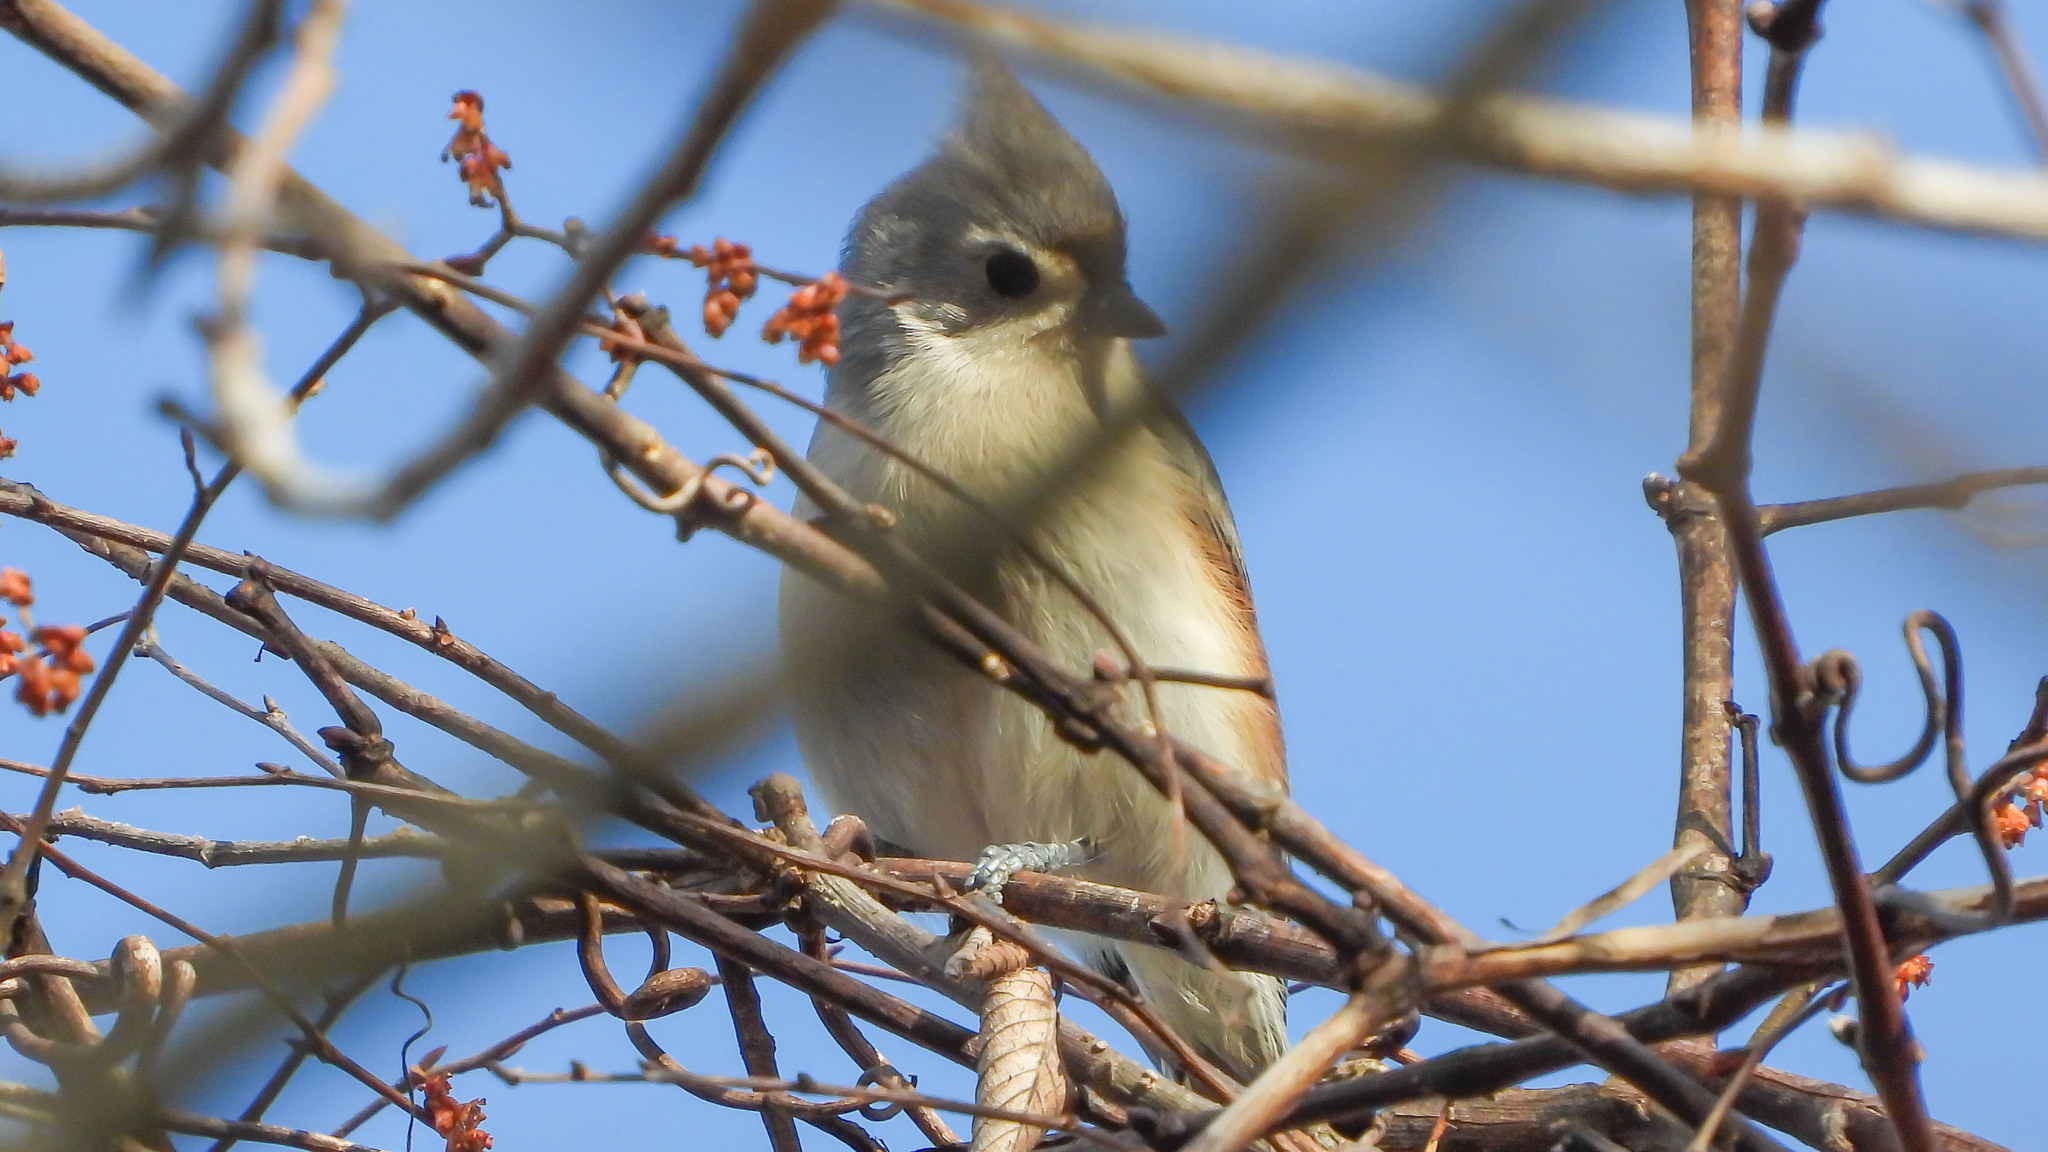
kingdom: Animalia
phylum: Chordata
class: Aves
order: Passeriformes
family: Paridae
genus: Baeolophus
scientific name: Baeolophus bicolor
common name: Tufted titmouse
